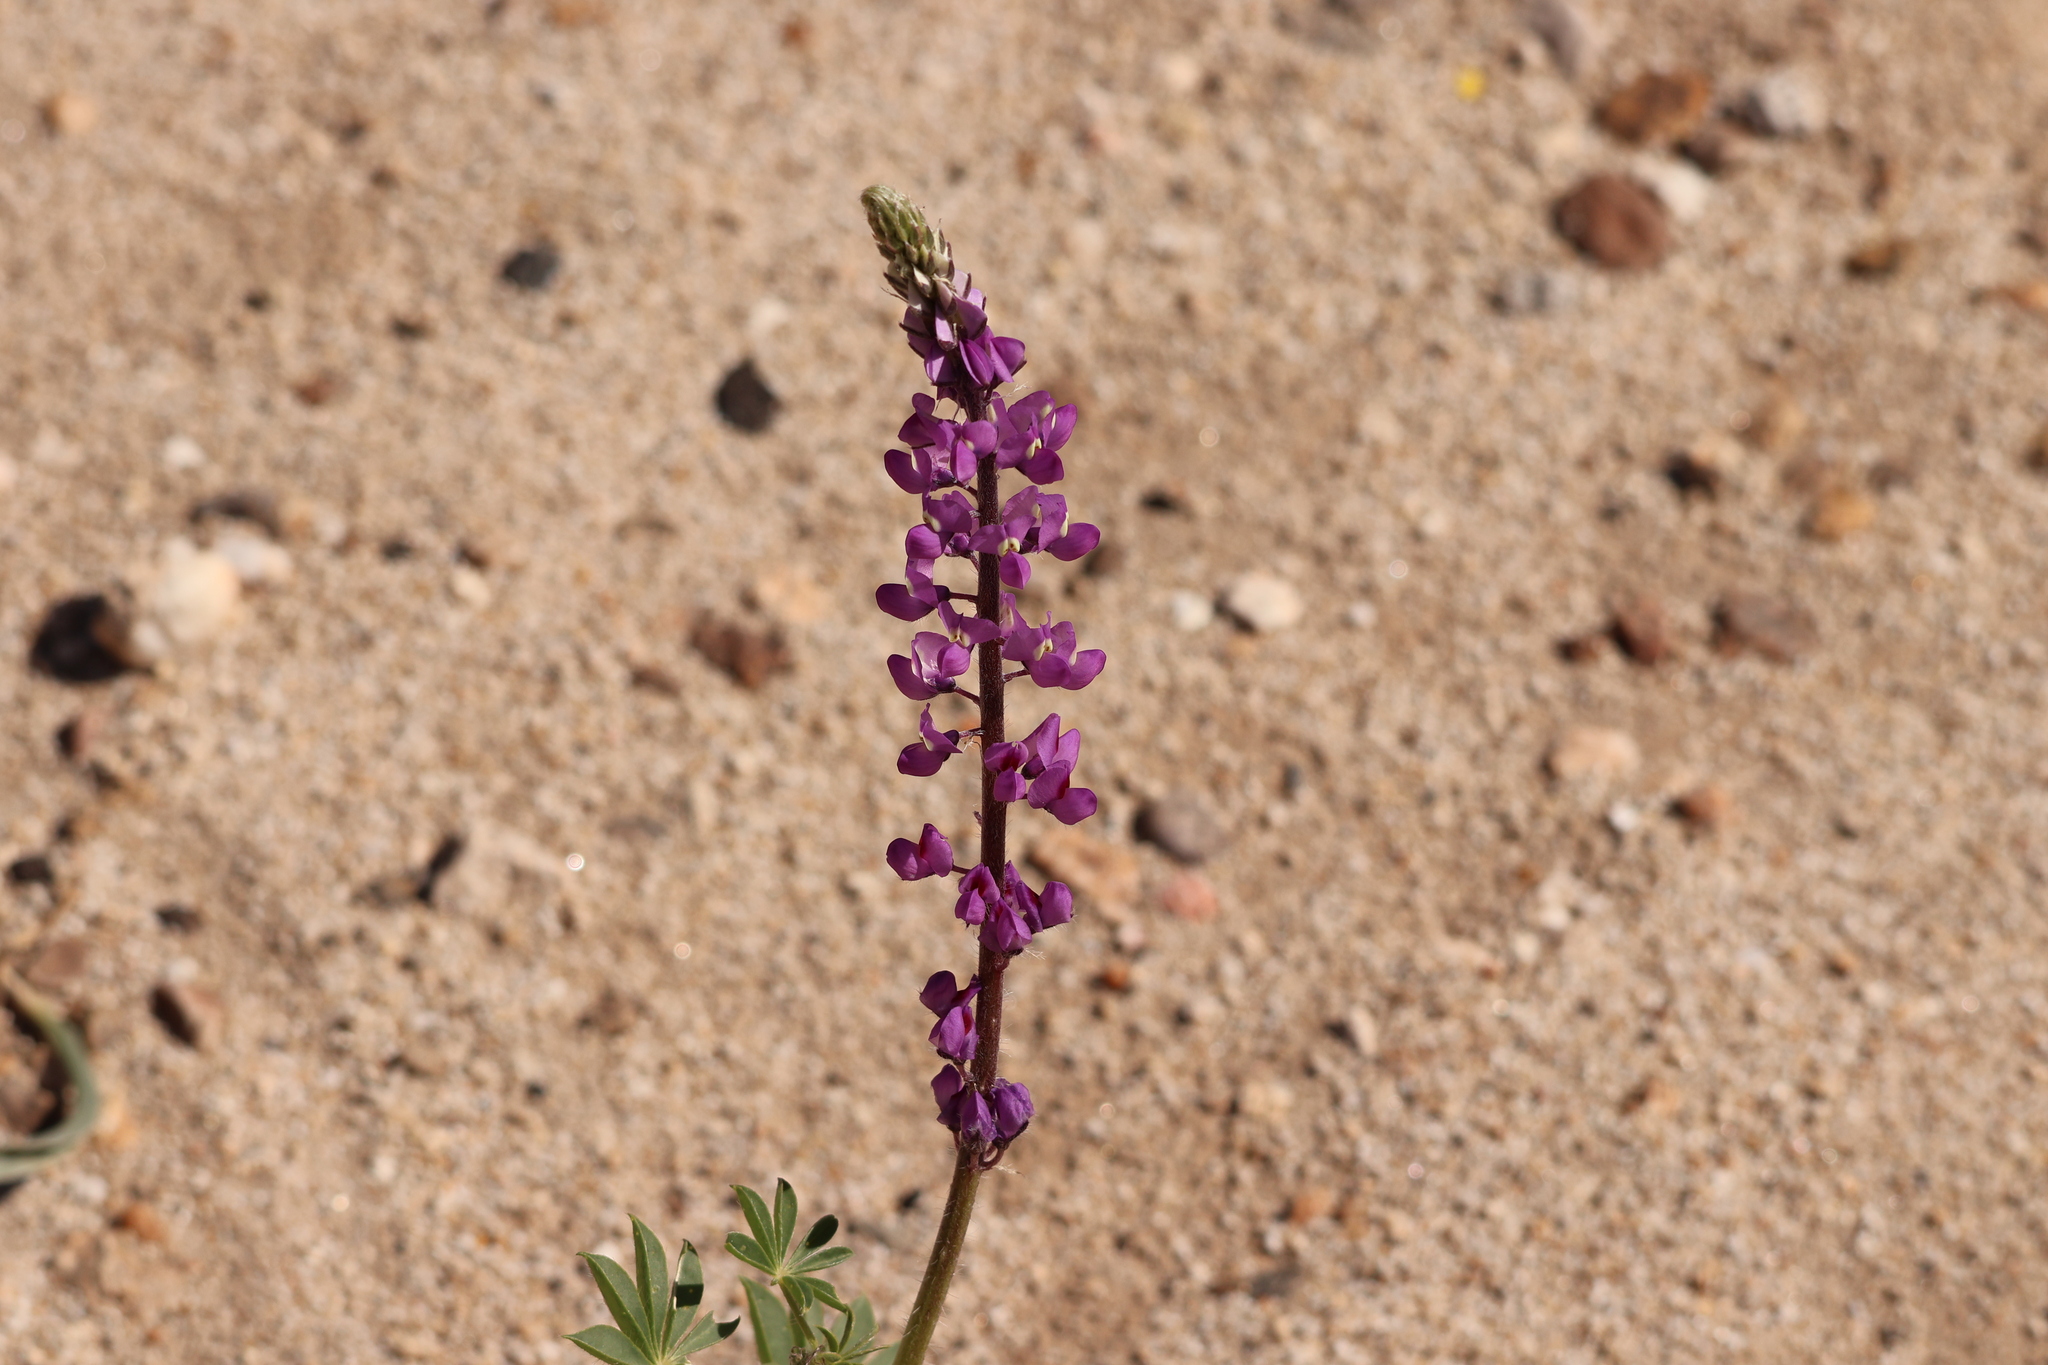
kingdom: Plantae
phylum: Tracheophyta
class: Magnoliopsida
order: Fabales
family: Fabaceae
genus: Lupinus
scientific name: Lupinus arizonicus
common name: Arizona lupine
